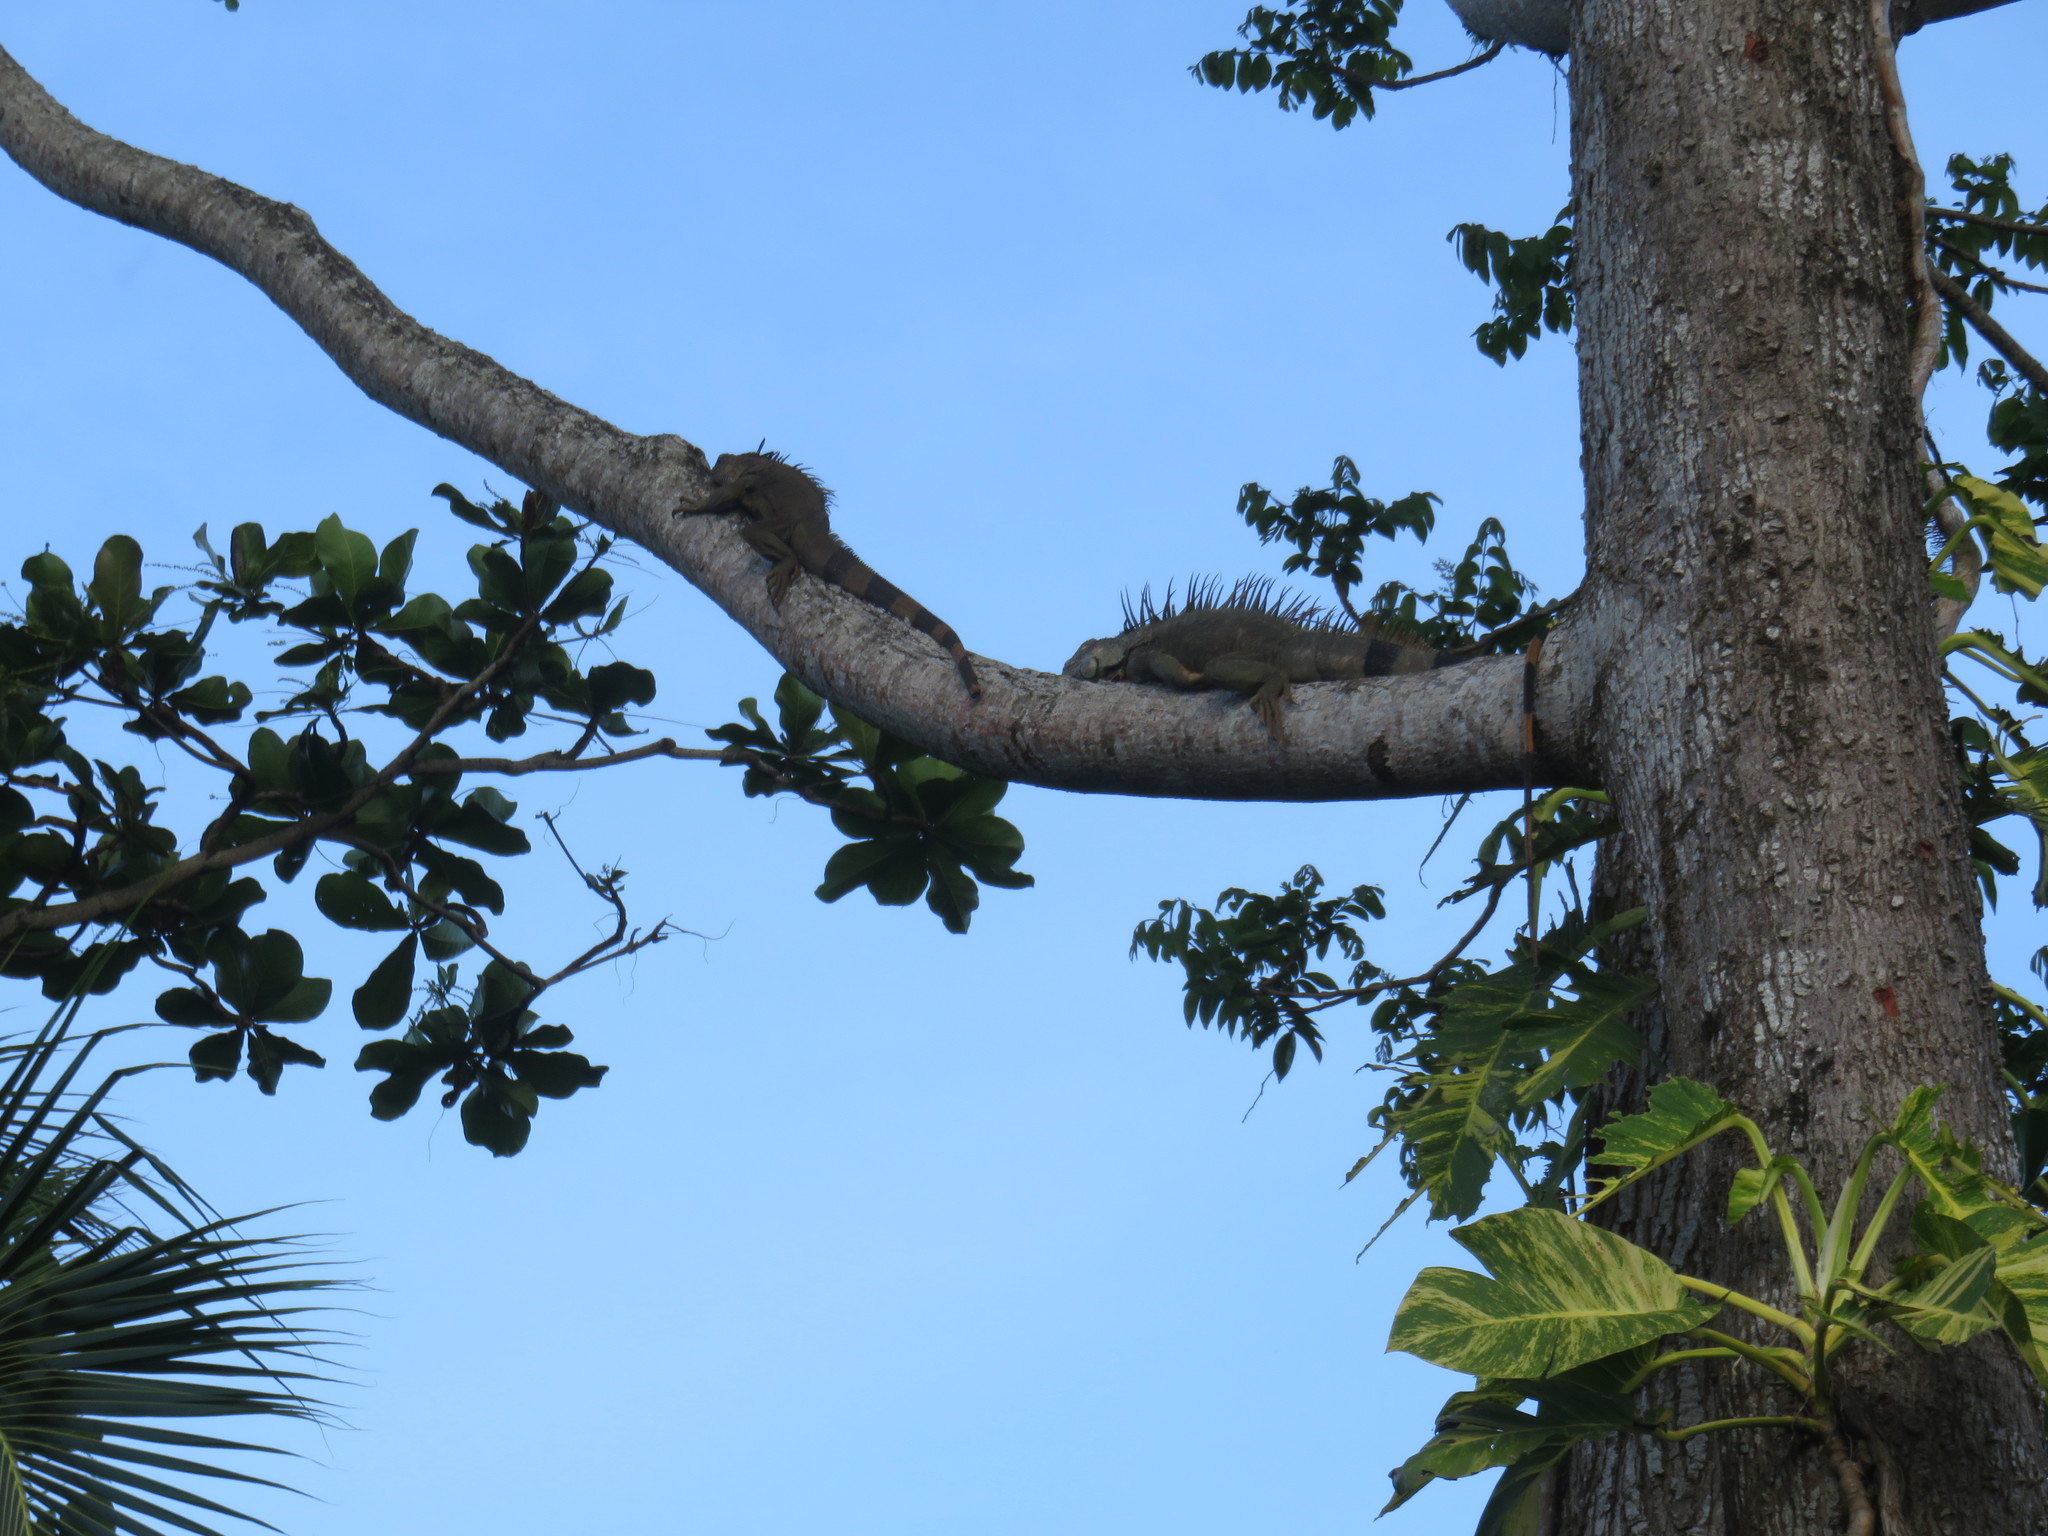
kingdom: Animalia
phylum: Chordata
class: Squamata
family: Iguanidae
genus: Iguana
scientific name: Iguana iguana
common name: Green iguana
